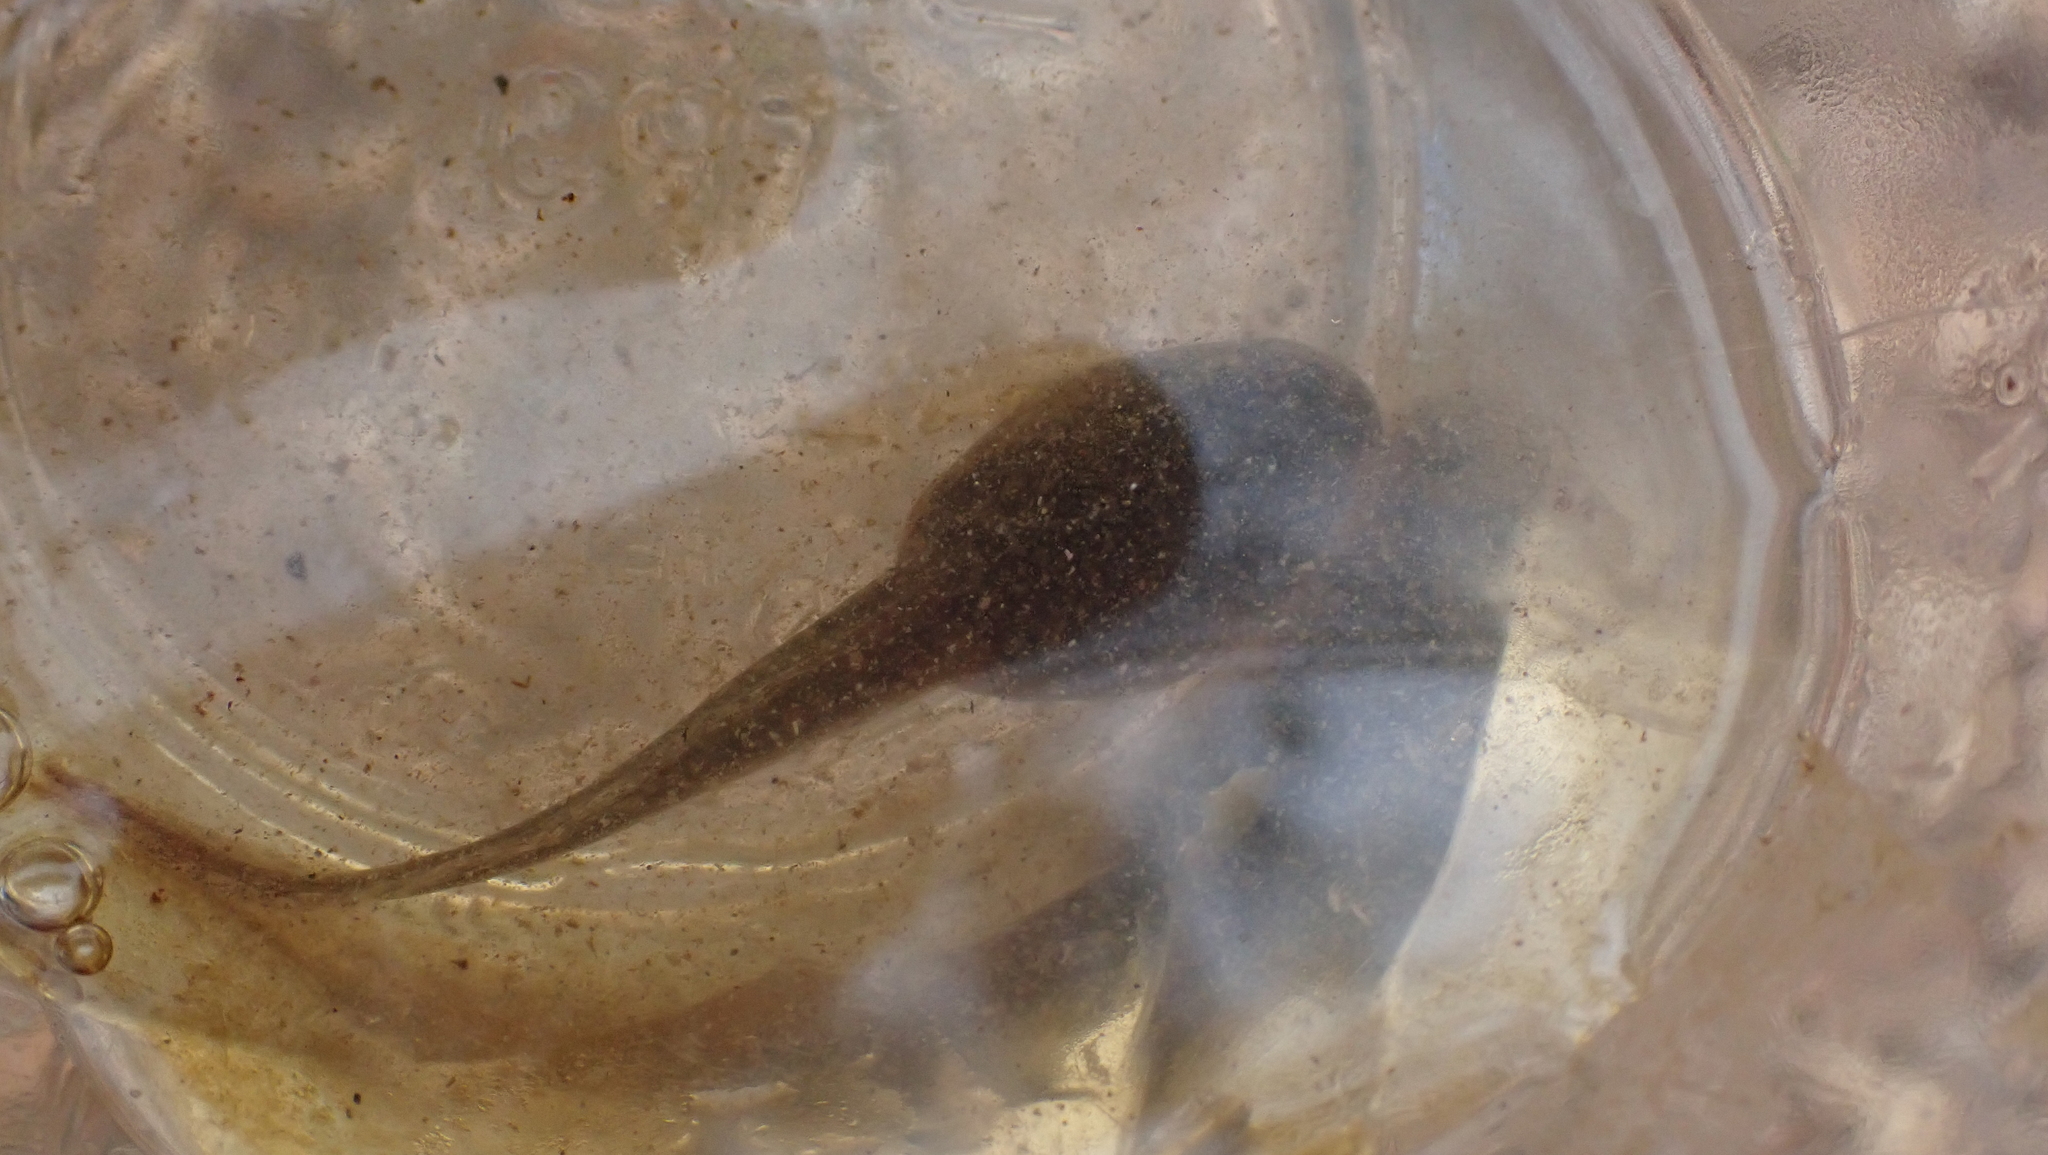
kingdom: Animalia
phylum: Chordata
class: Amphibia
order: Anura
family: Ranidae
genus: Lithobates
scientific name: Lithobates clamitans
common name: Green frog
